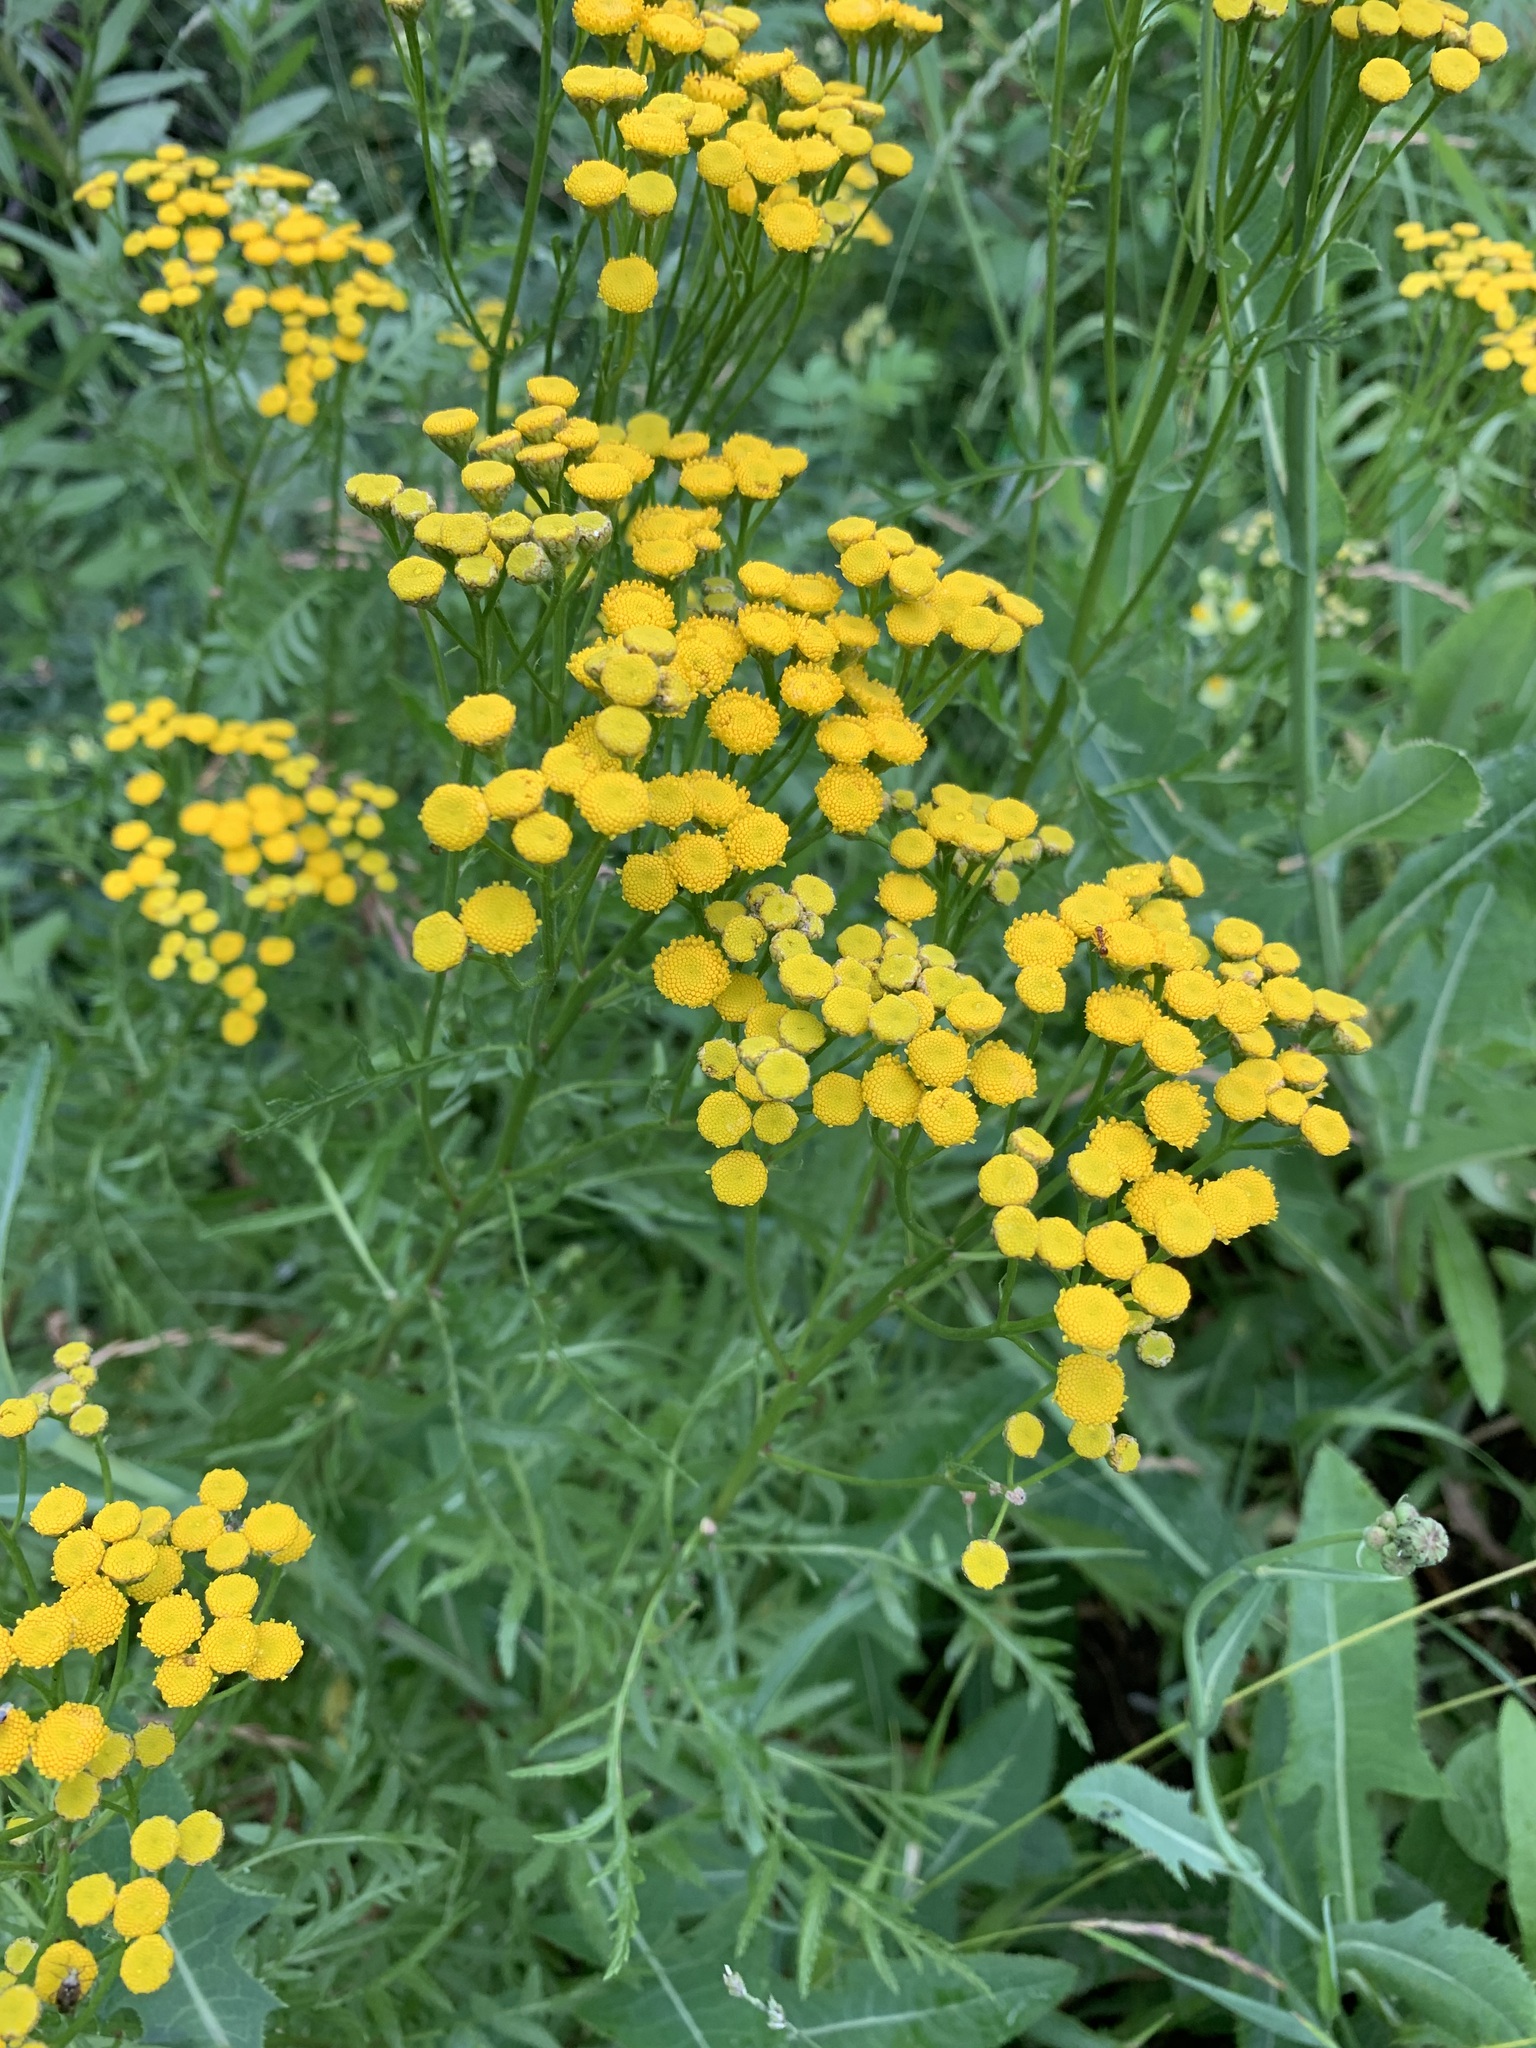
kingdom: Plantae
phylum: Tracheophyta
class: Magnoliopsida
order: Asterales
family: Asteraceae
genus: Tanacetum
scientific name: Tanacetum vulgare
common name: Common tansy
